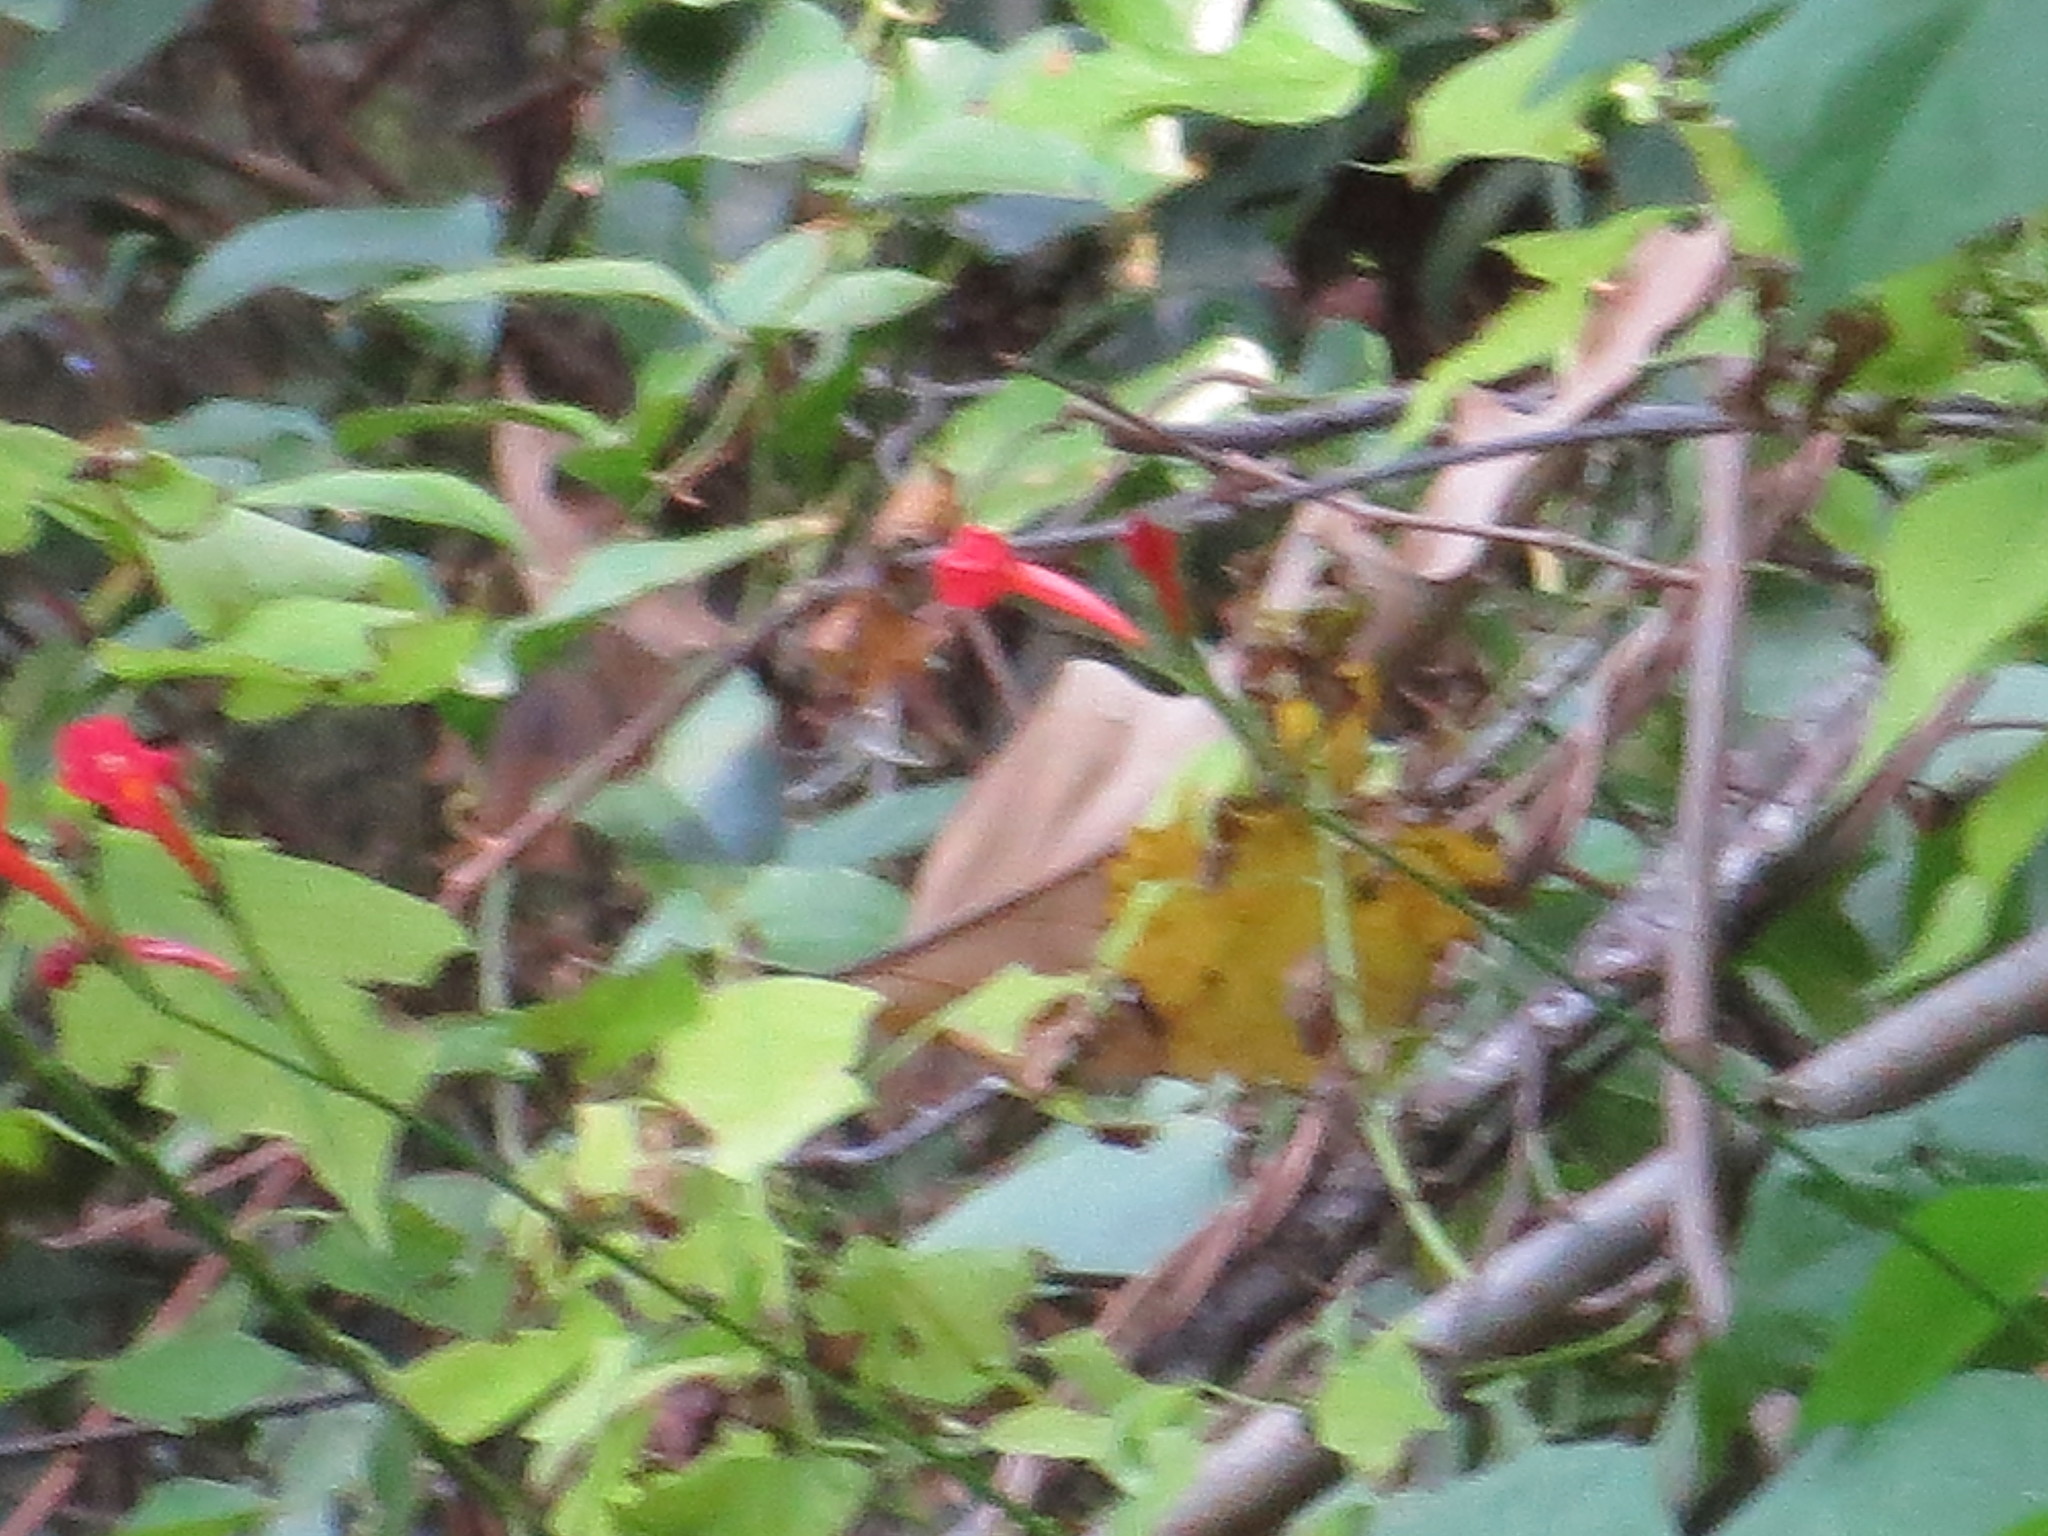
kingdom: Plantae
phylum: Tracheophyta
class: Magnoliopsida
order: Solanales
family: Convolvulaceae
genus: Ipomoea
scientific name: Ipomoea hederifolia
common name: Ivy-leaf morning-glory
